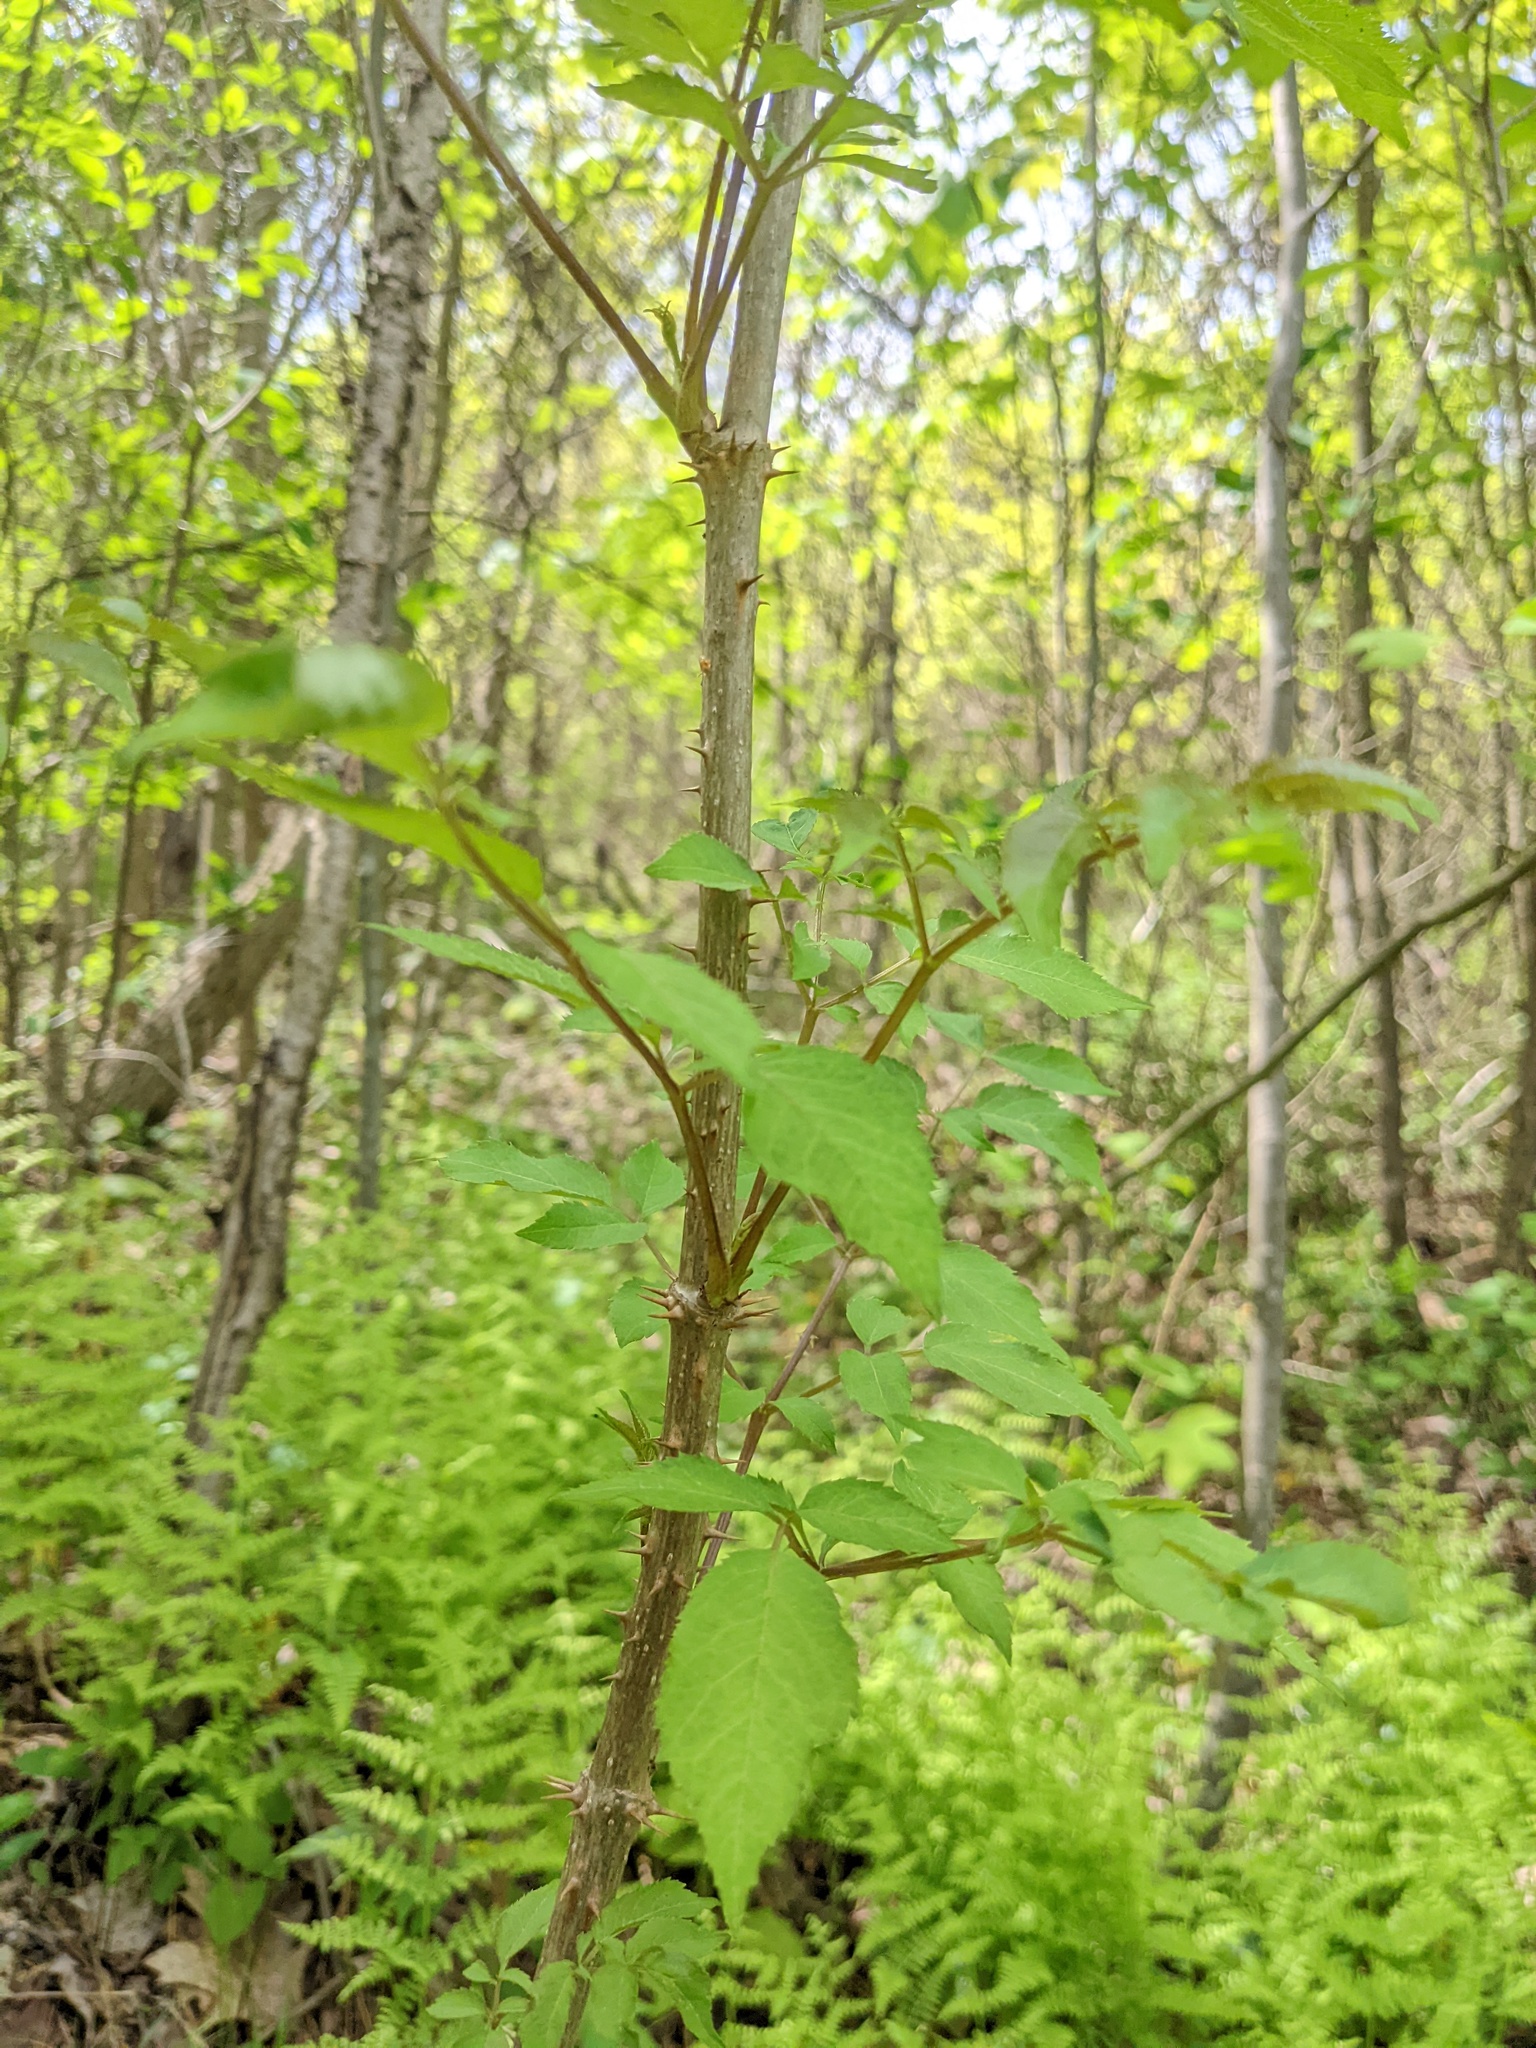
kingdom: Plantae
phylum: Tracheophyta
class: Magnoliopsida
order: Apiales
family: Araliaceae
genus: Aralia
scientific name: Aralia spinosa
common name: Hercules'-club
